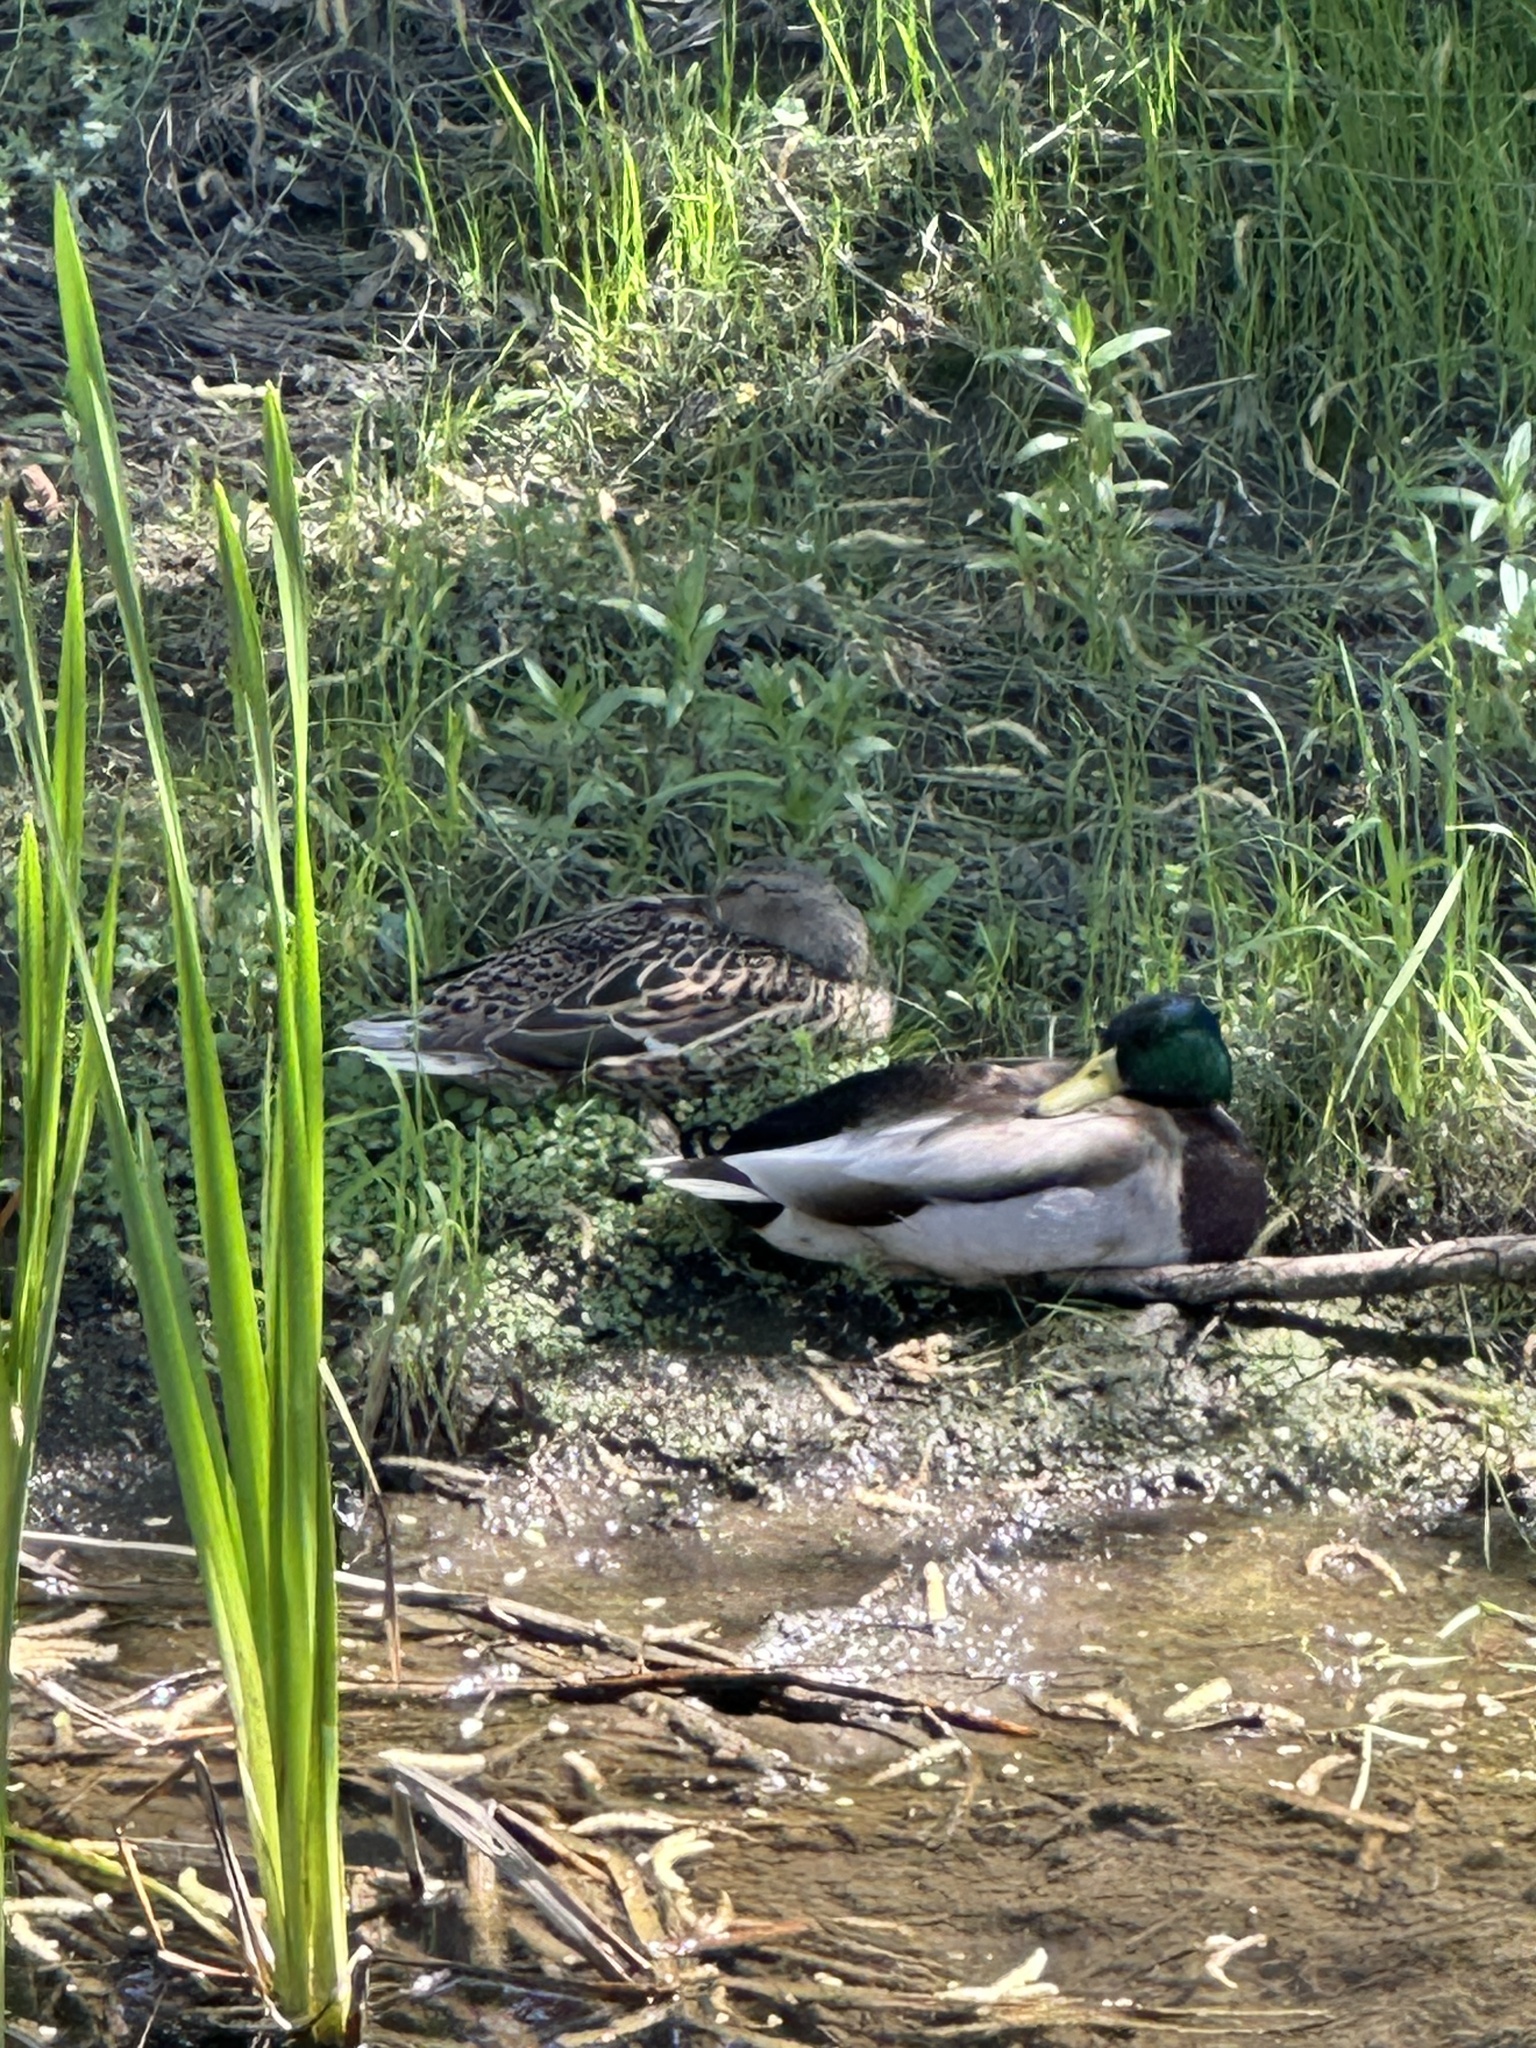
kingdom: Animalia
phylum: Chordata
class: Aves
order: Anseriformes
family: Anatidae
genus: Anas
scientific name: Anas platyrhynchos
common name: Mallard
